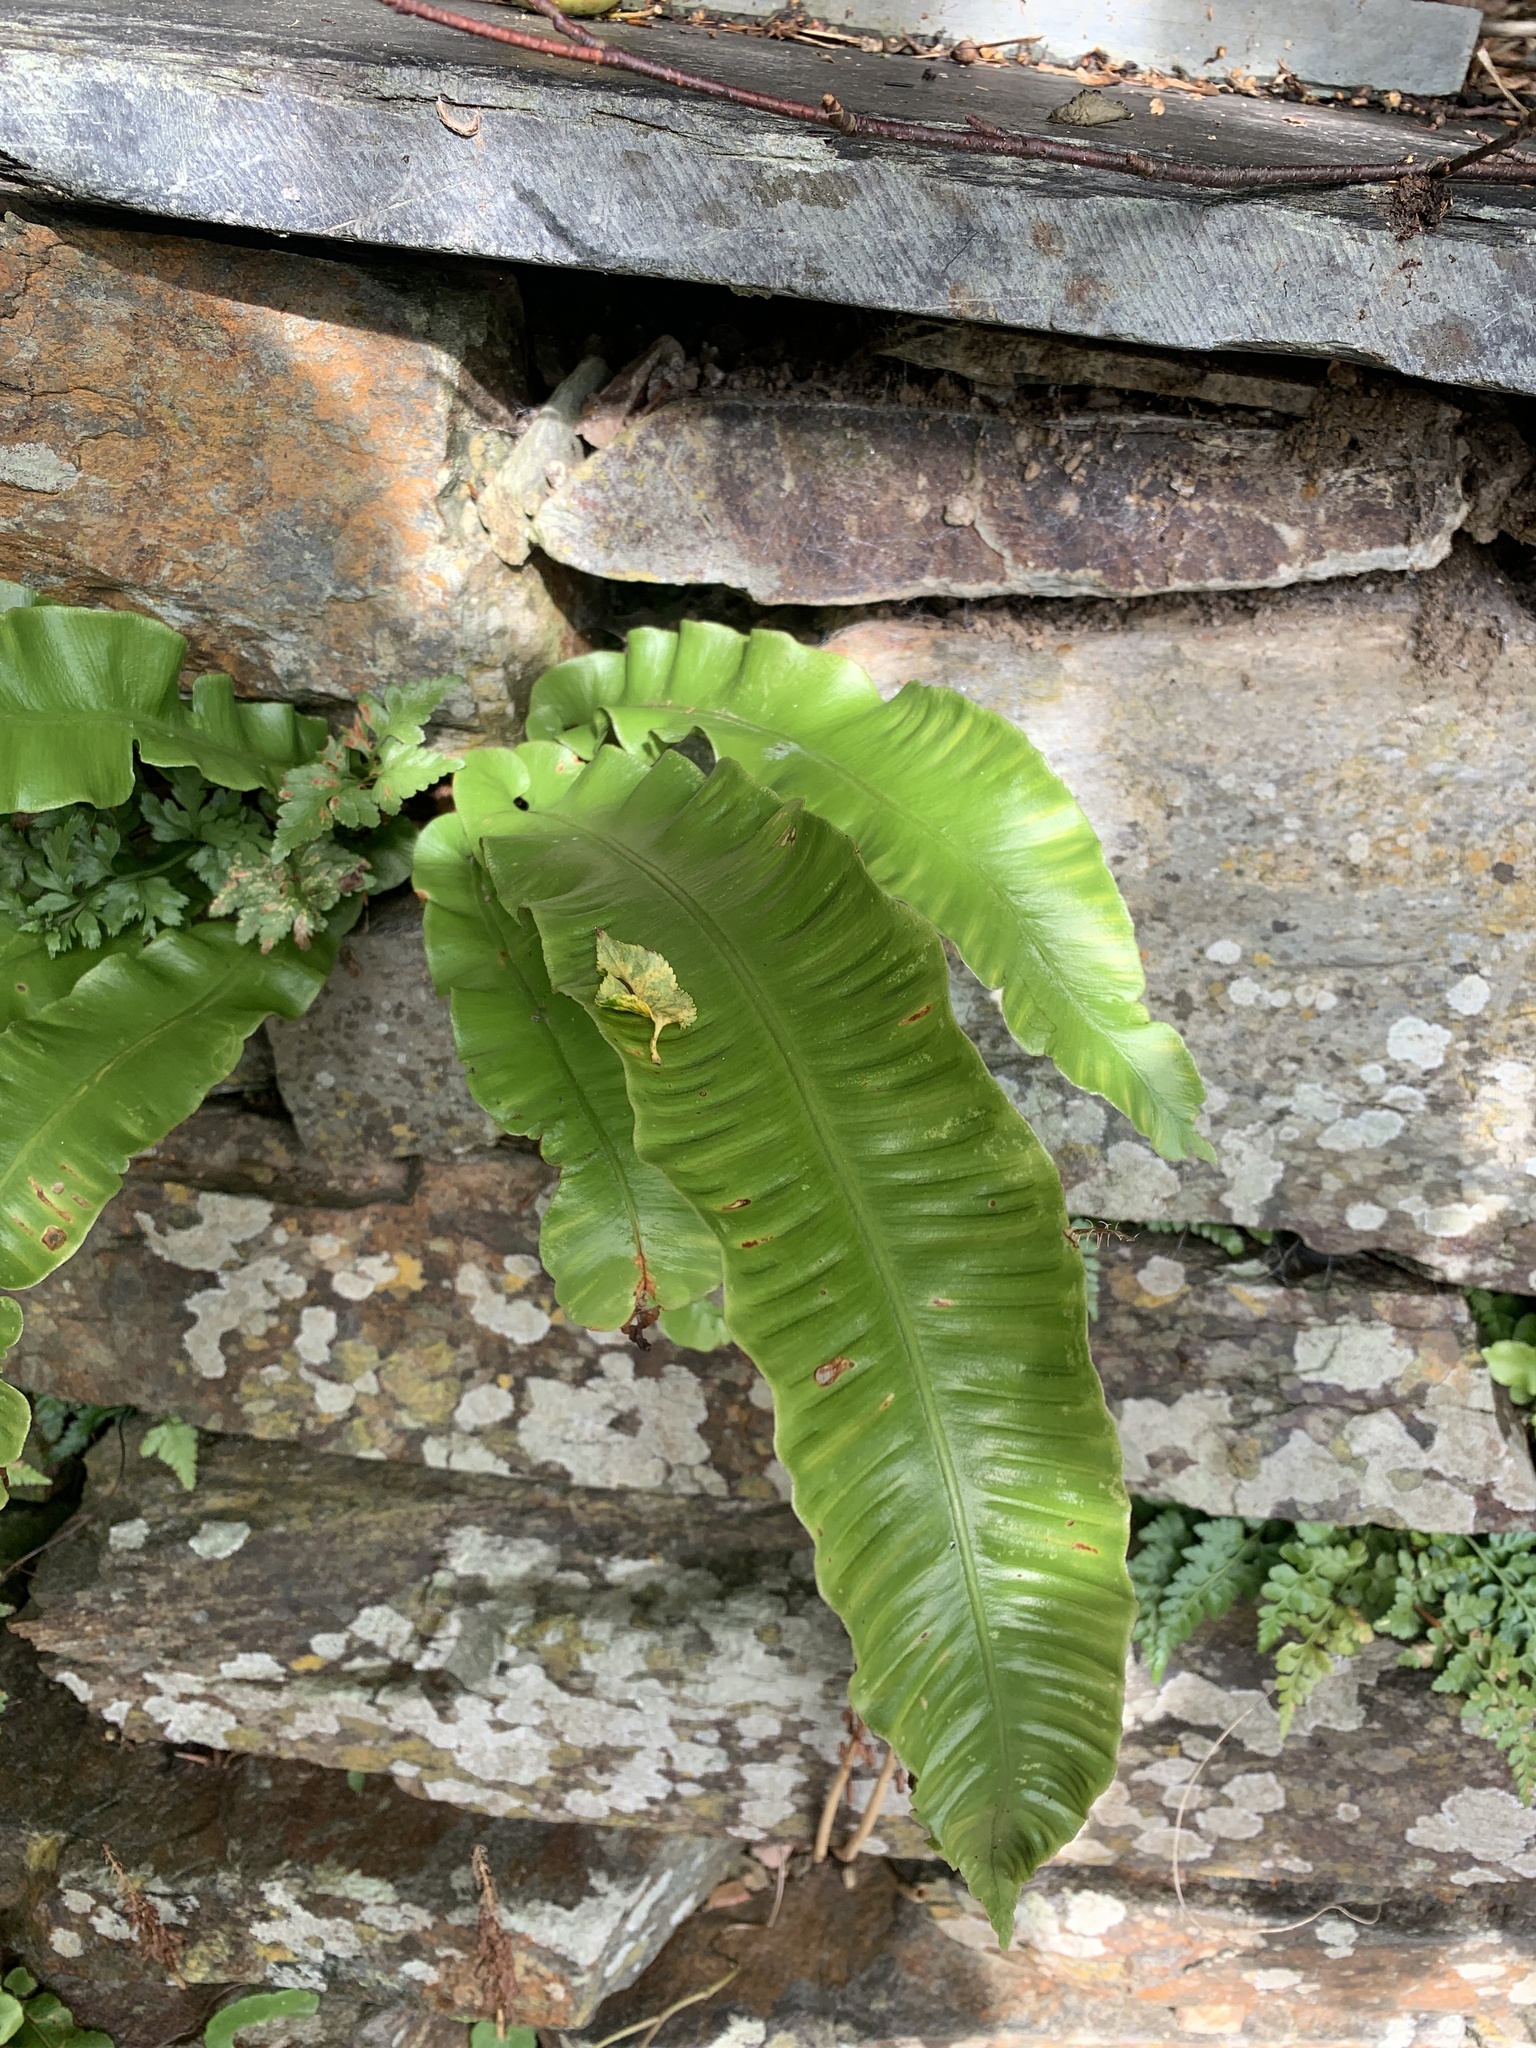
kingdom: Plantae
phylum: Tracheophyta
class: Polypodiopsida
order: Polypodiales
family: Aspleniaceae
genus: Asplenium
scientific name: Asplenium scolopendrium
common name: Hart's-tongue fern
